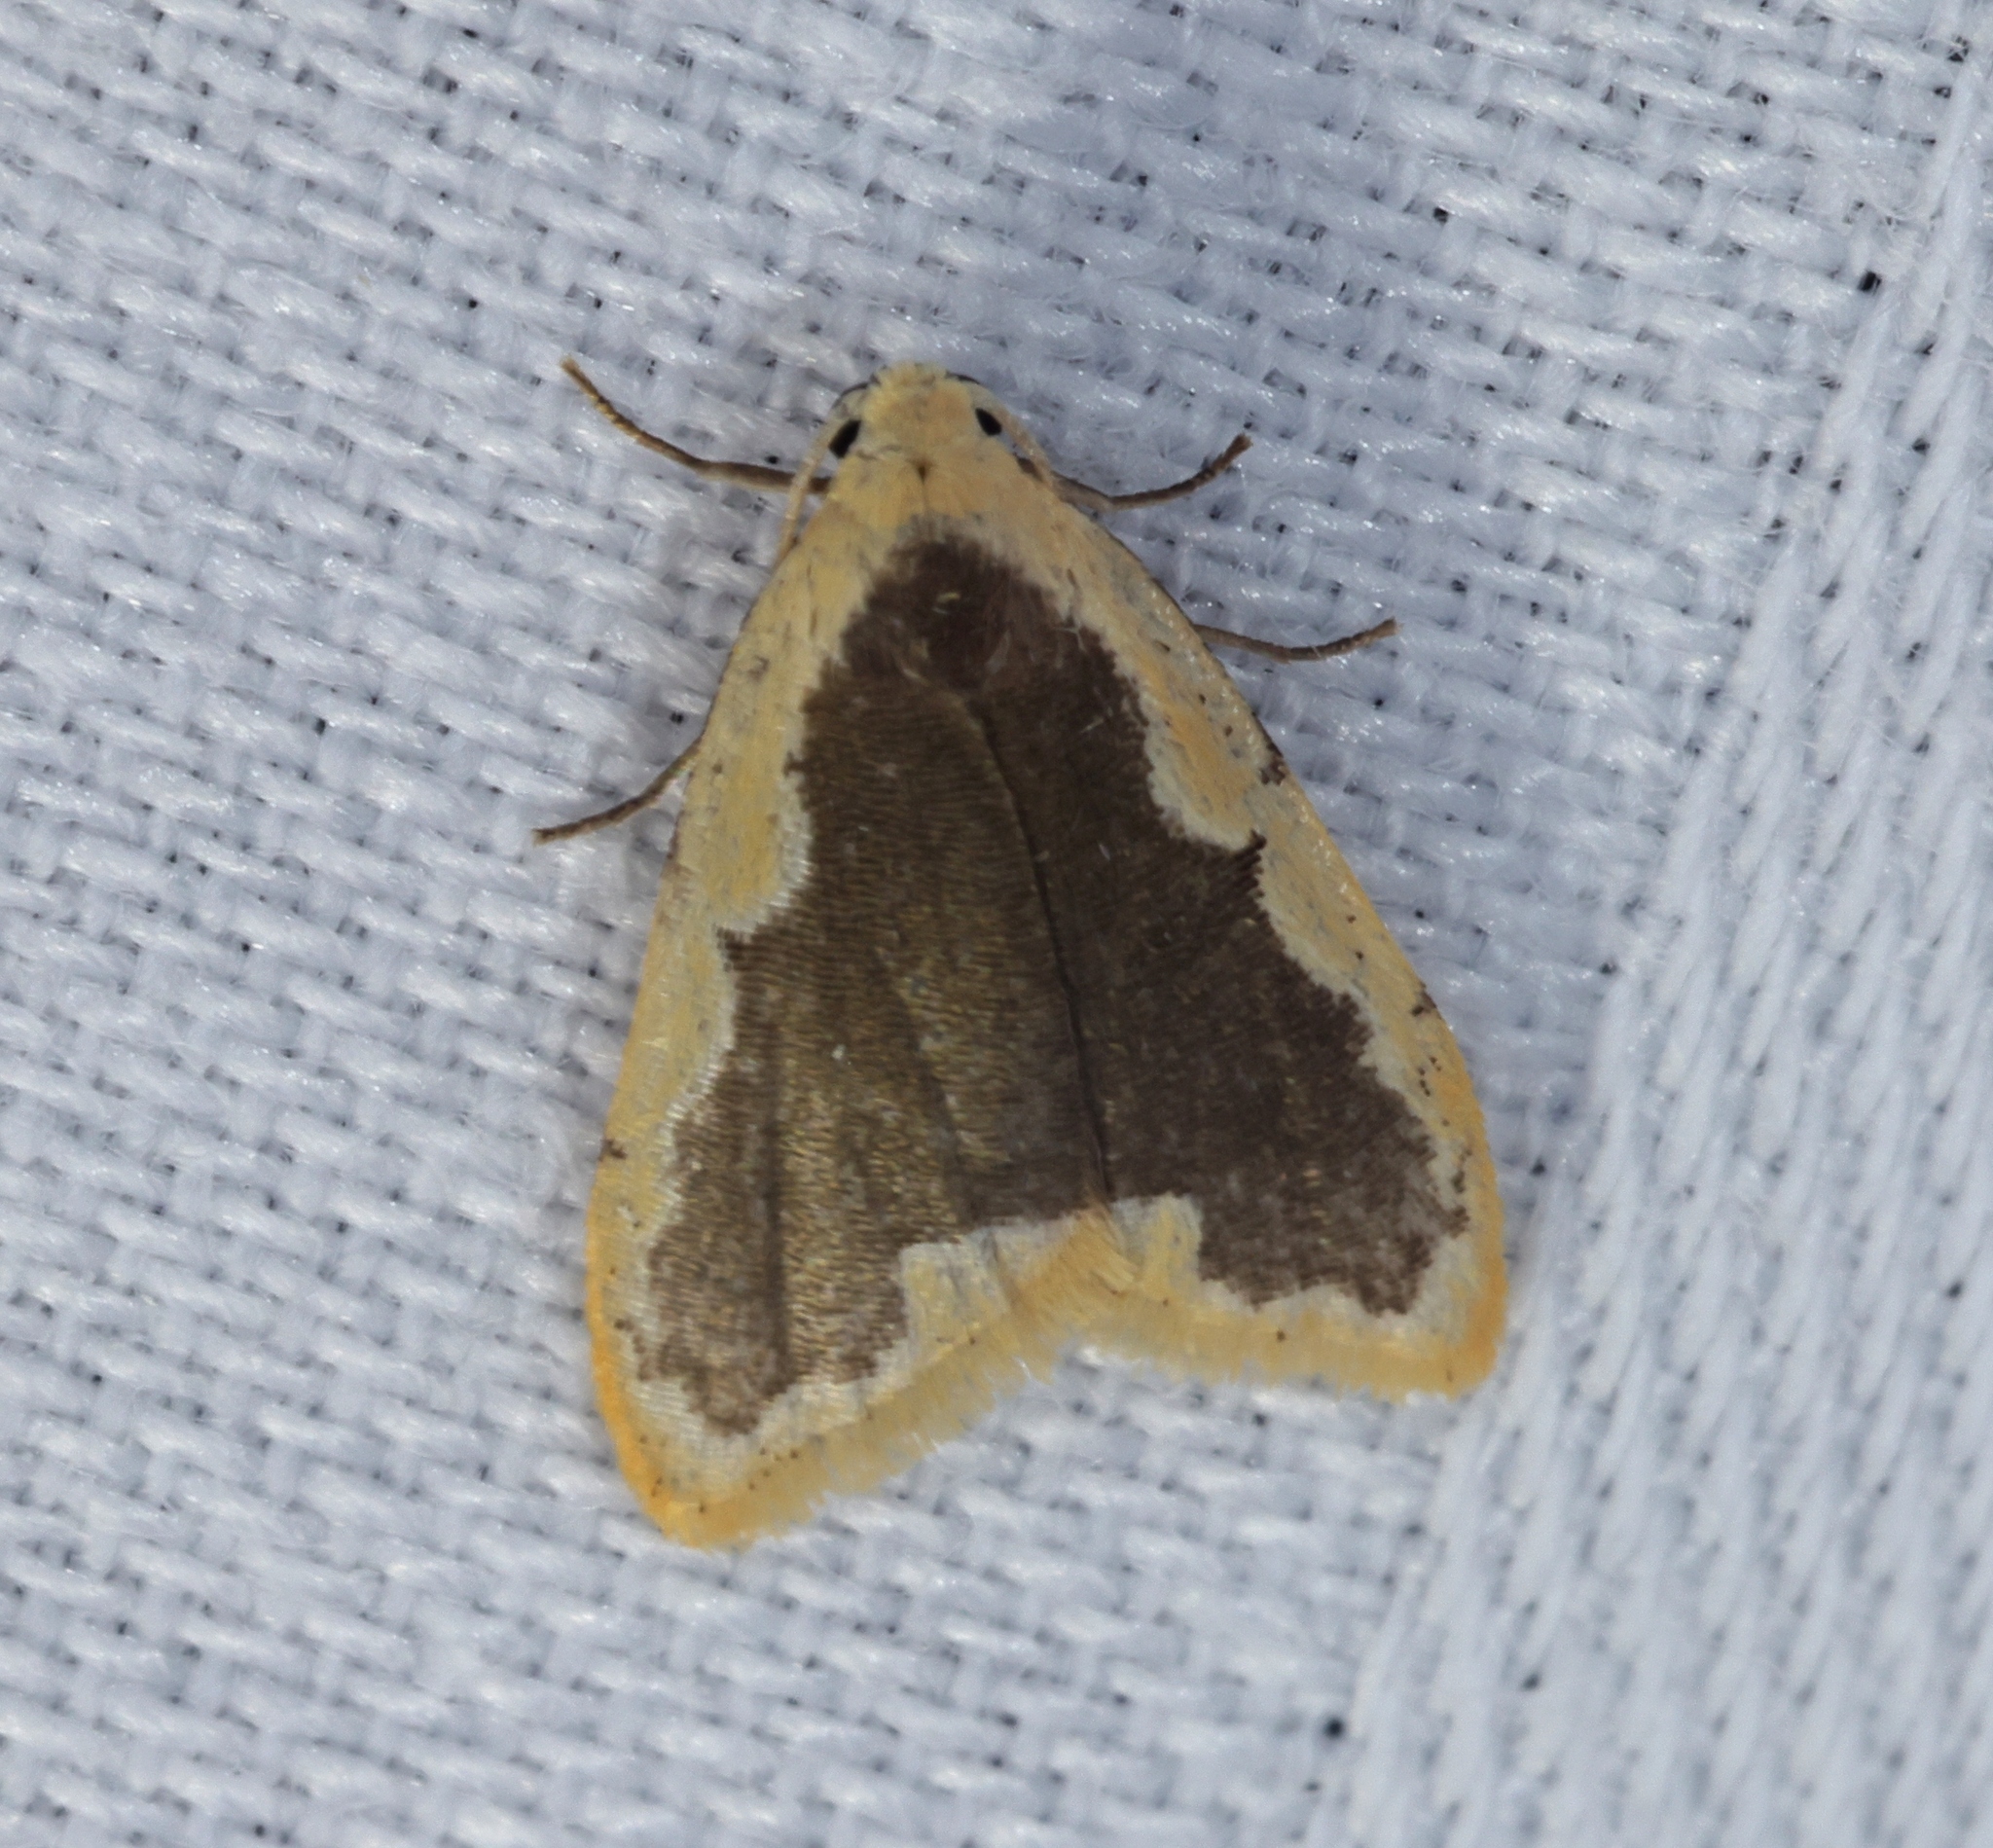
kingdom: Animalia
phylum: Arthropoda
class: Insecta
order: Lepidoptera
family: Erebidae
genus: Diduga
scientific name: Diduga flavicostata
